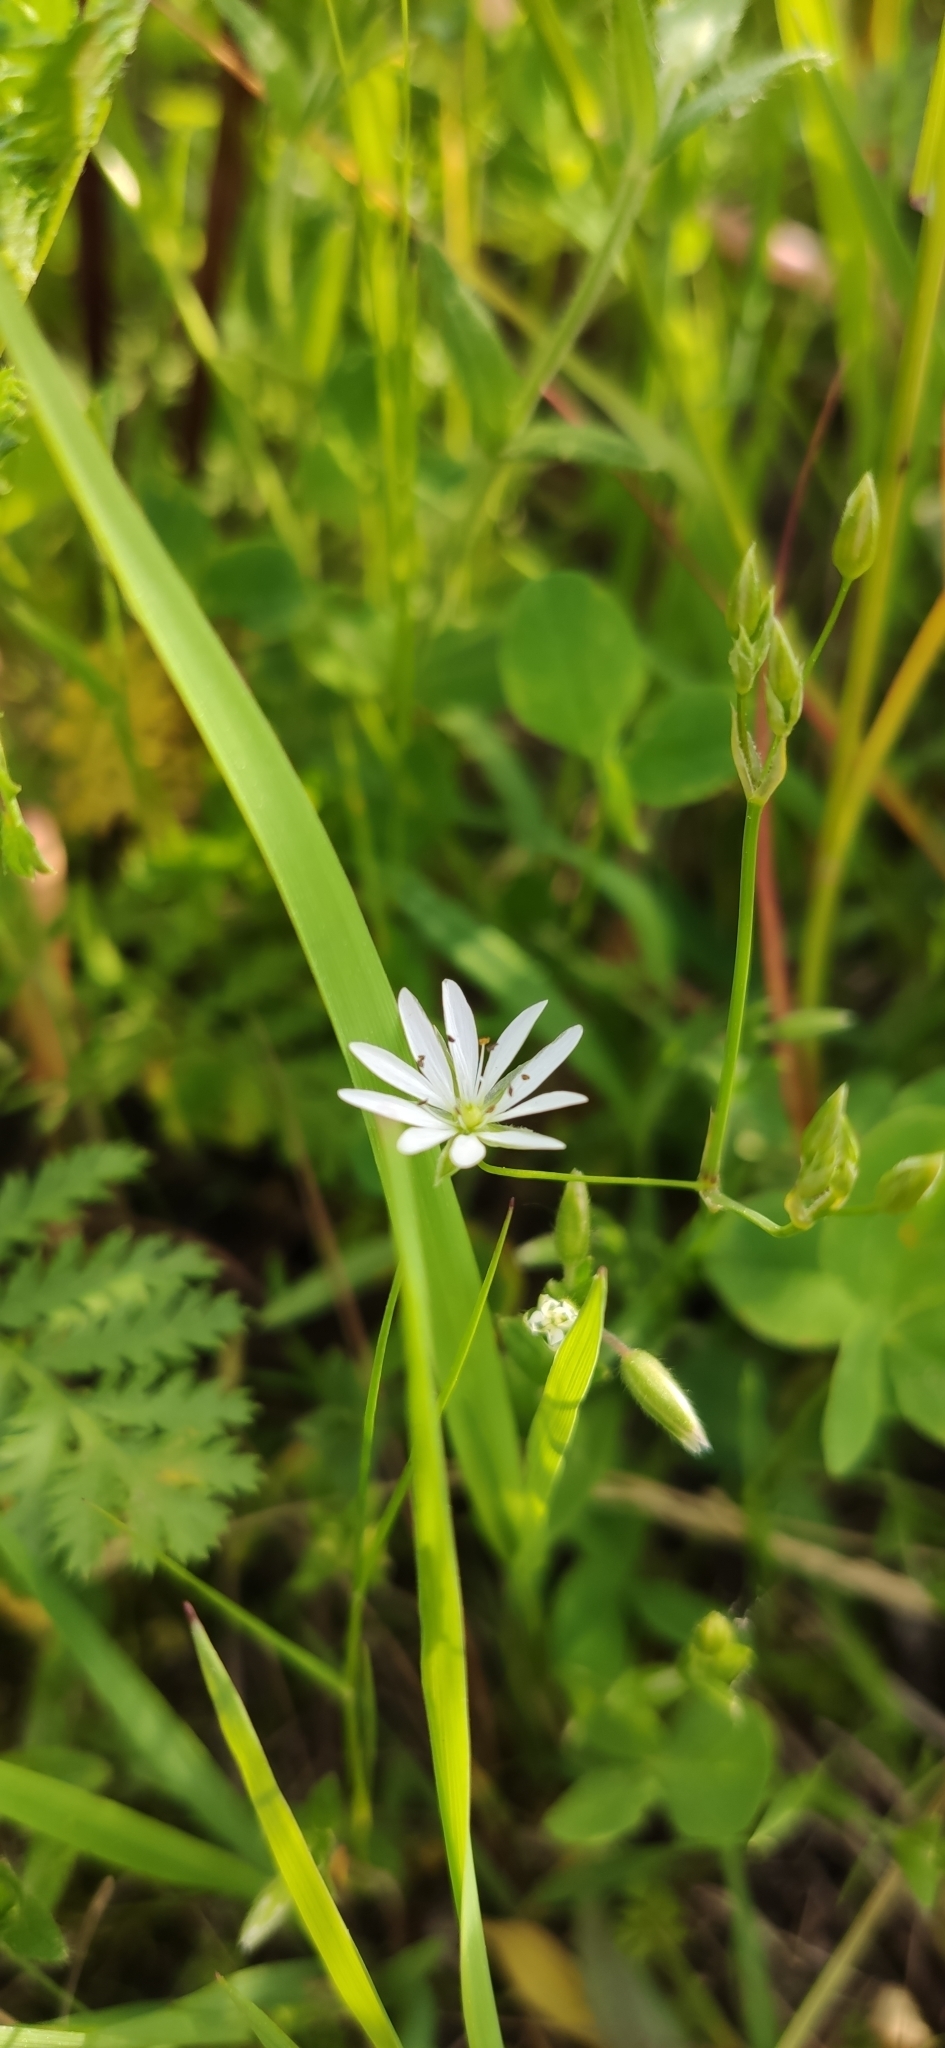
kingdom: Plantae
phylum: Tracheophyta
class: Magnoliopsida
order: Caryophyllales
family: Caryophyllaceae
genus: Stellaria
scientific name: Stellaria graminea
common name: Grass-like starwort
